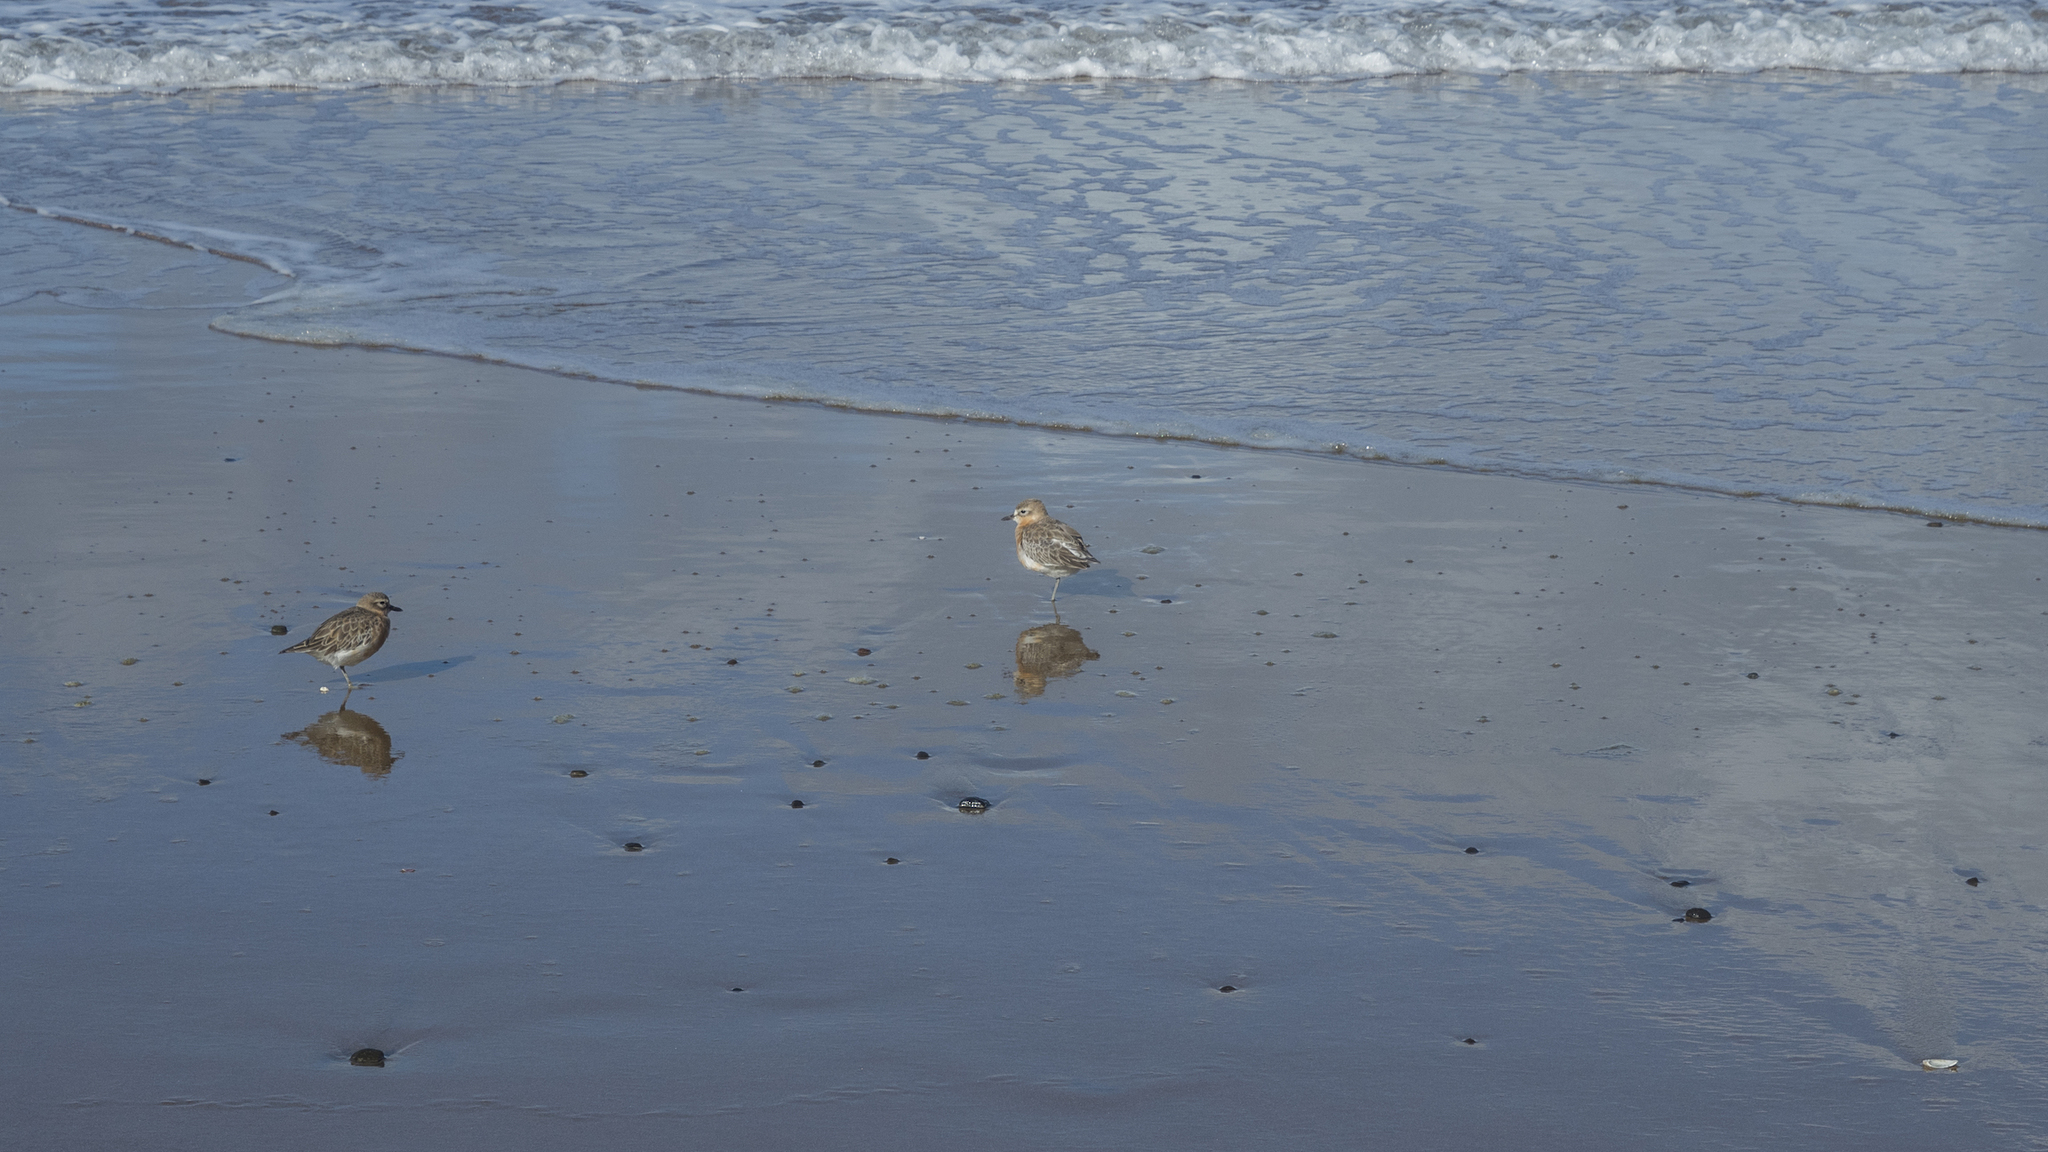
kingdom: Animalia
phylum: Chordata
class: Aves
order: Charadriiformes
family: Charadriidae
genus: Anarhynchus
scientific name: Anarhynchus
